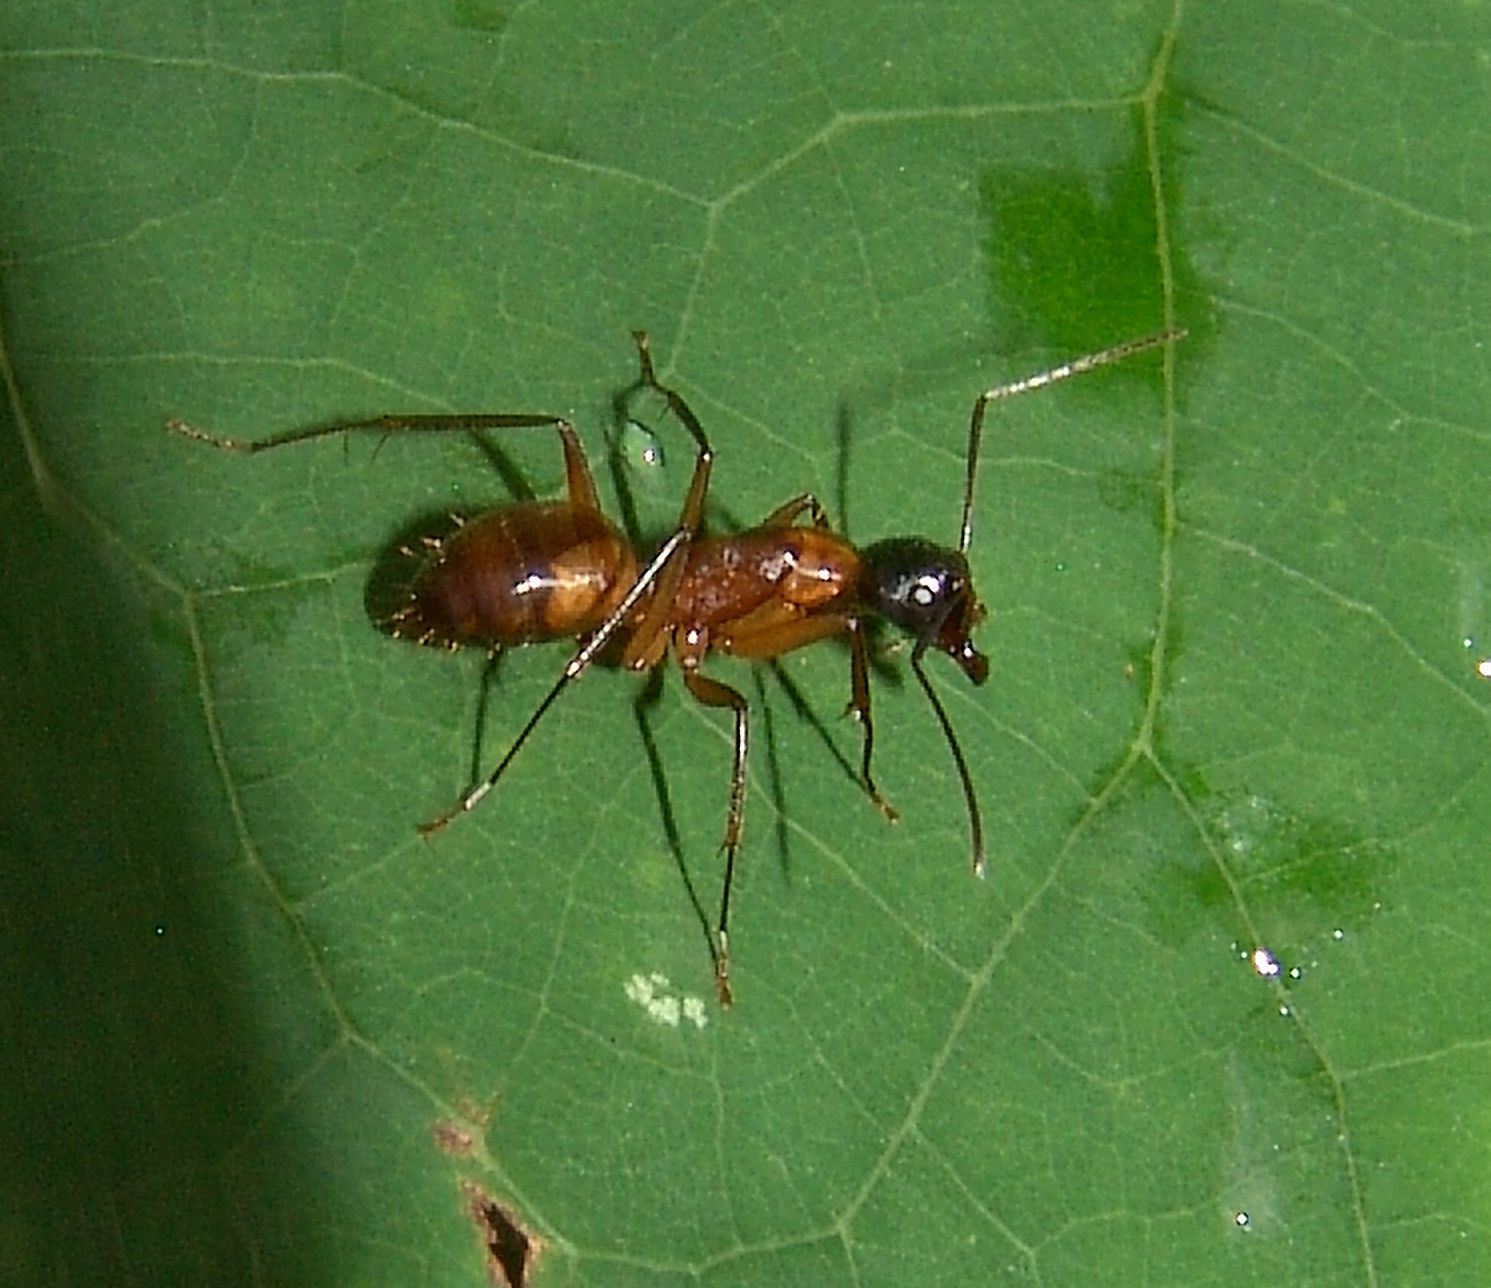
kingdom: Animalia
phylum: Arthropoda
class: Insecta
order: Hymenoptera
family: Formicidae
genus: Camponotus
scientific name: Camponotus americanus
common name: American carpenter ant
